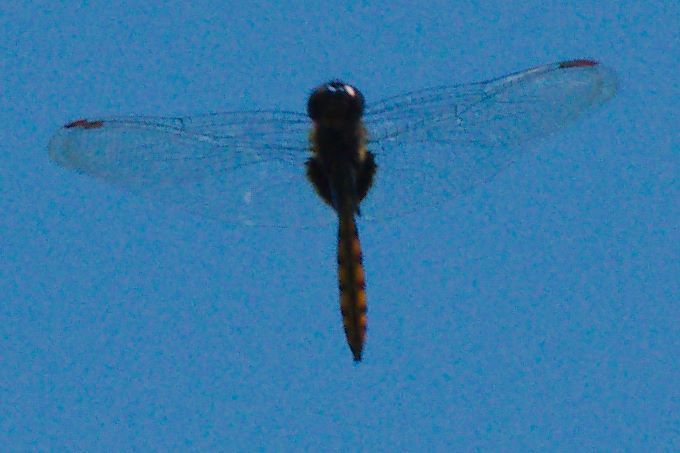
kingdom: Animalia
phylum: Arthropoda
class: Insecta
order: Odonata
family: Libellulidae
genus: Tauriphila
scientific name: Tauriphila australis
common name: Garnet glider
